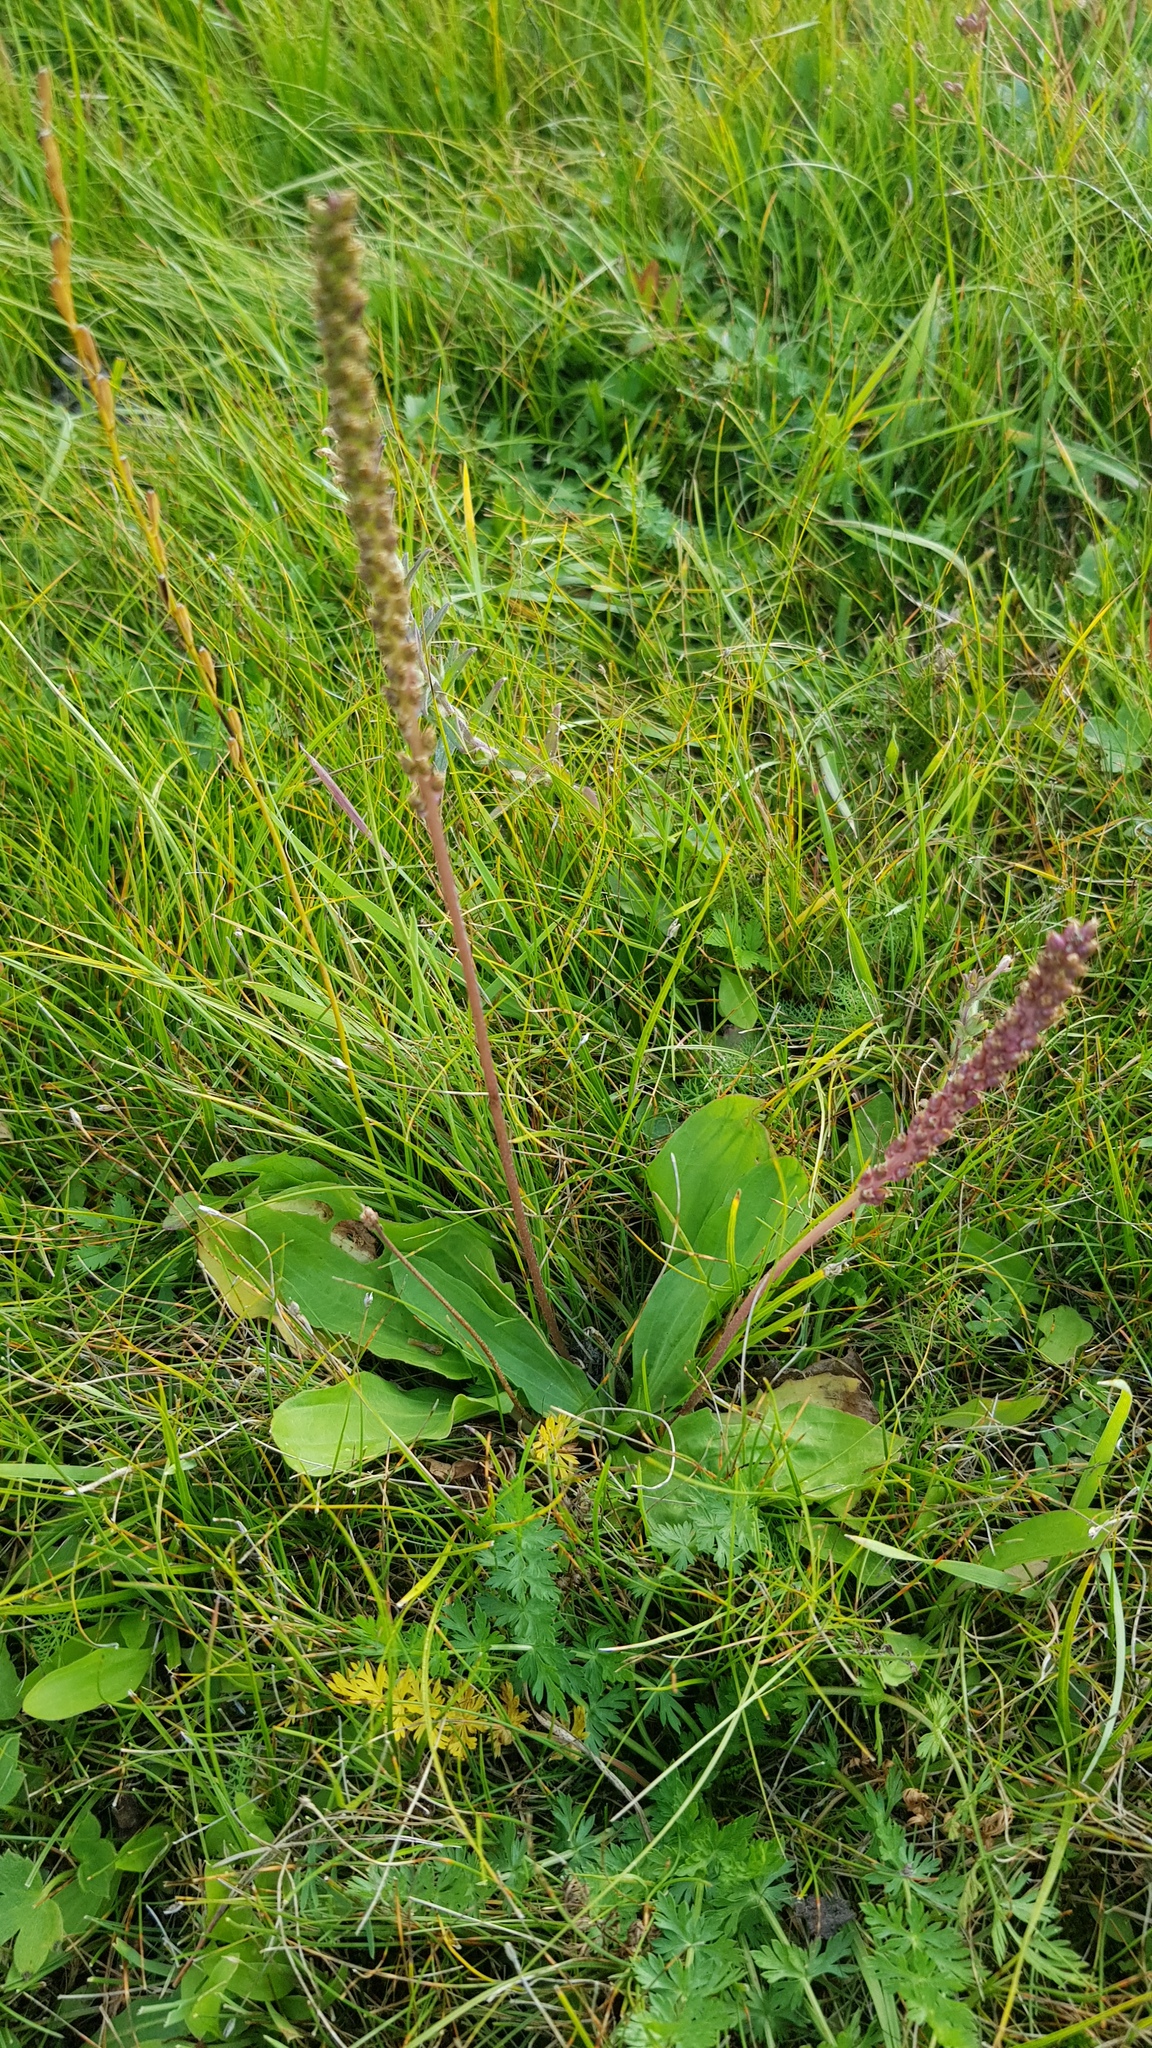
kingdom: Plantae
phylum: Tracheophyta
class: Magnoliopsida
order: Lamiales
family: Plantaginaceae
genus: Plantago
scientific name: Plantago depressa
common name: Depressed plantain
